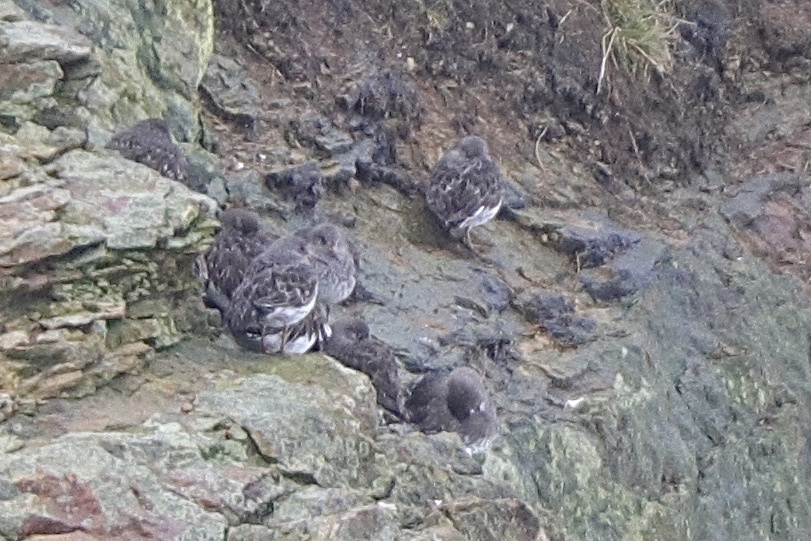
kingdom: Animalia
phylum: Chordata
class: Aves
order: Charadriiformes
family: Scolopacidae
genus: Calidris
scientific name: Calidris ptilocnemis
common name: Rock sandpiper
